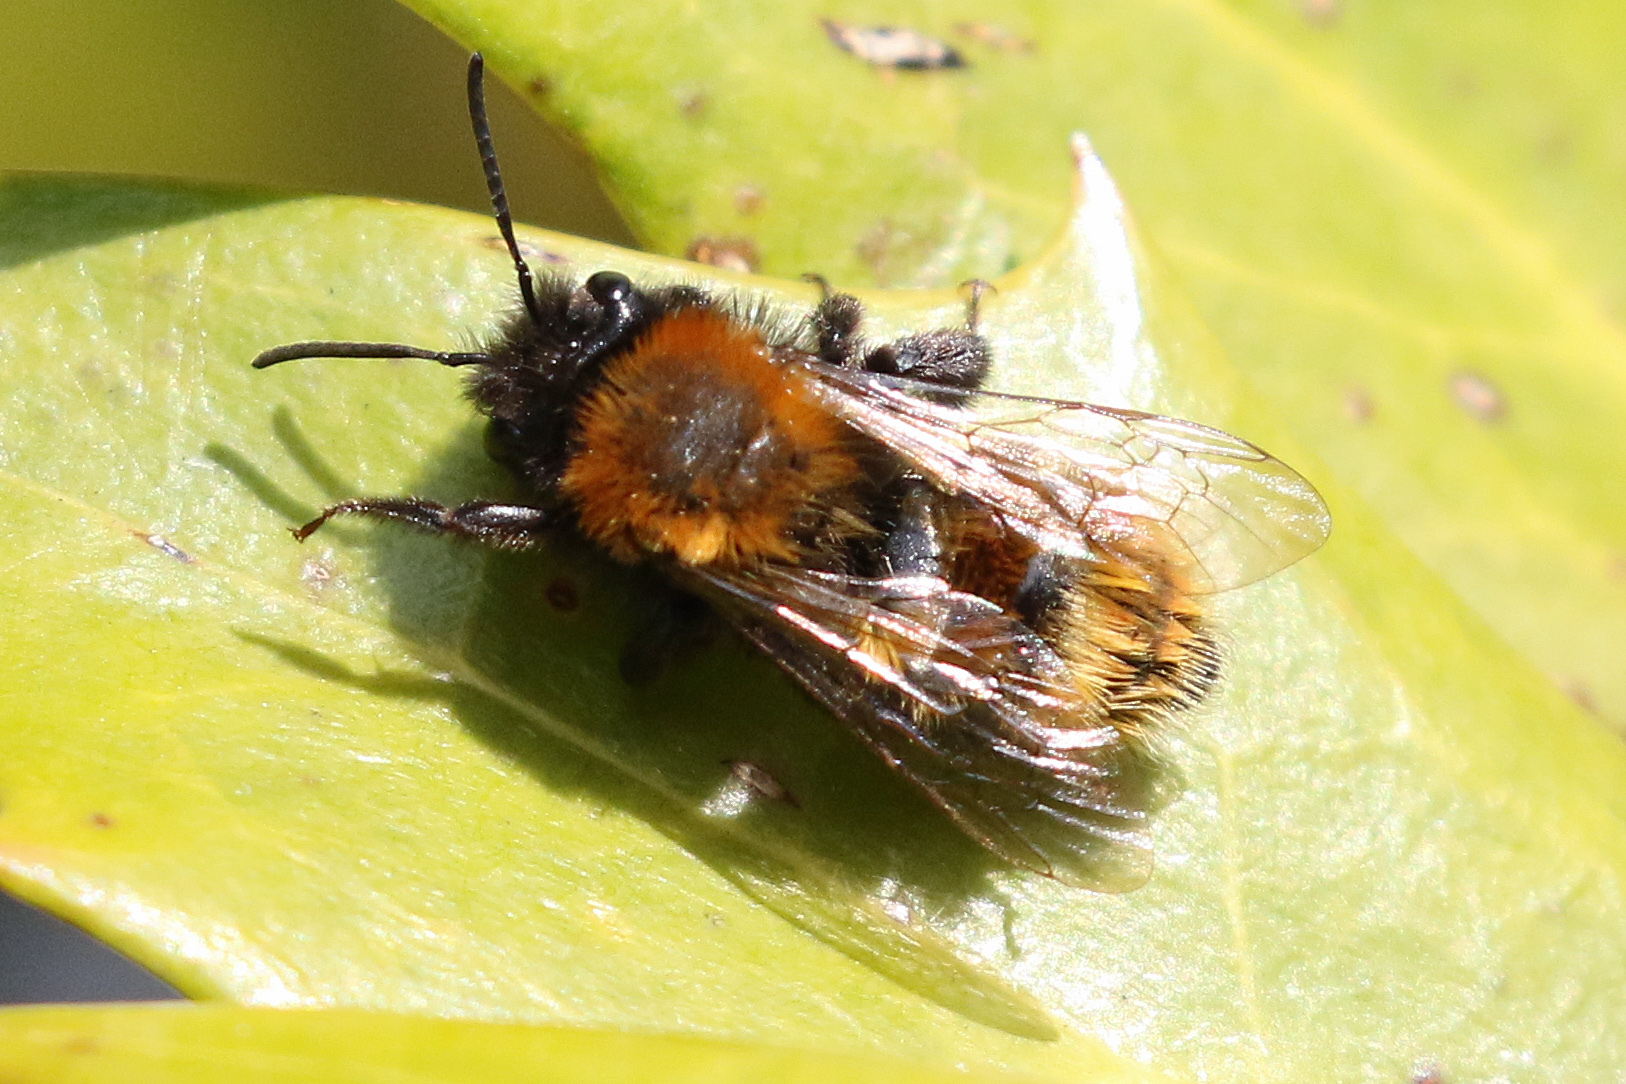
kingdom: Animalia
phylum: Arthropoda
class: Insecta
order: Hymenoptera
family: Andrenidae
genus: Andrena
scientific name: Andrena fulva
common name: Tawny mining bee
